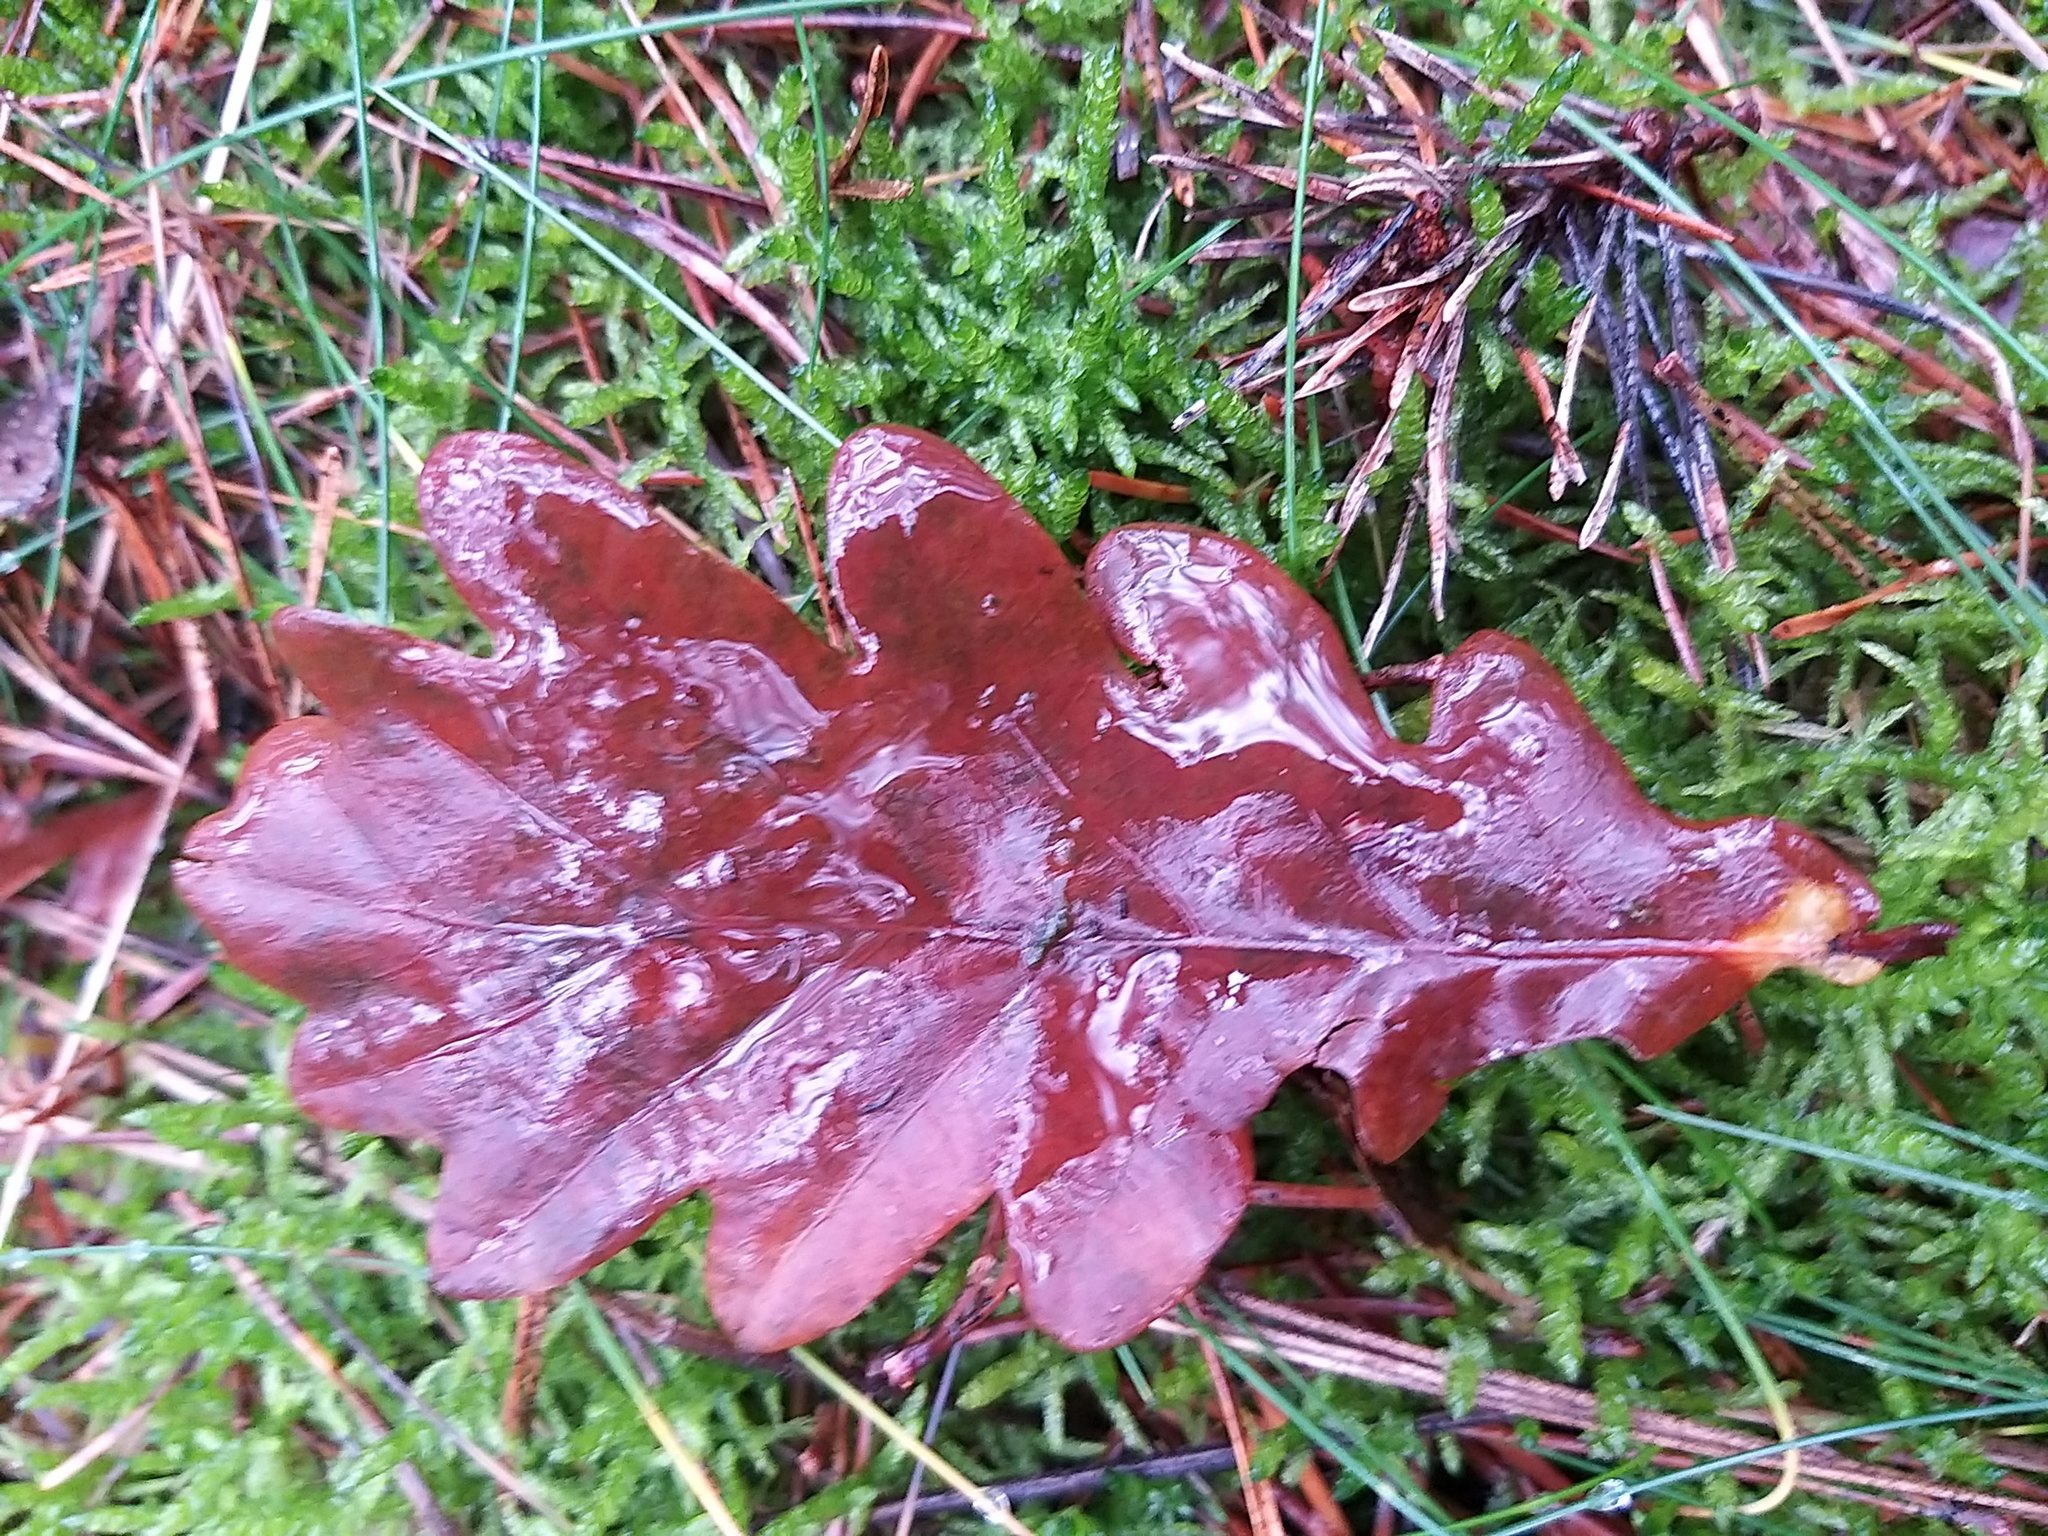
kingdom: Plantae
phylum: Tracheophyta
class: Magnoliopsida
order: Fagales
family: Fagaceae
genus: Quercus
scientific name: Quercus robur
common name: Pedunculate oak
